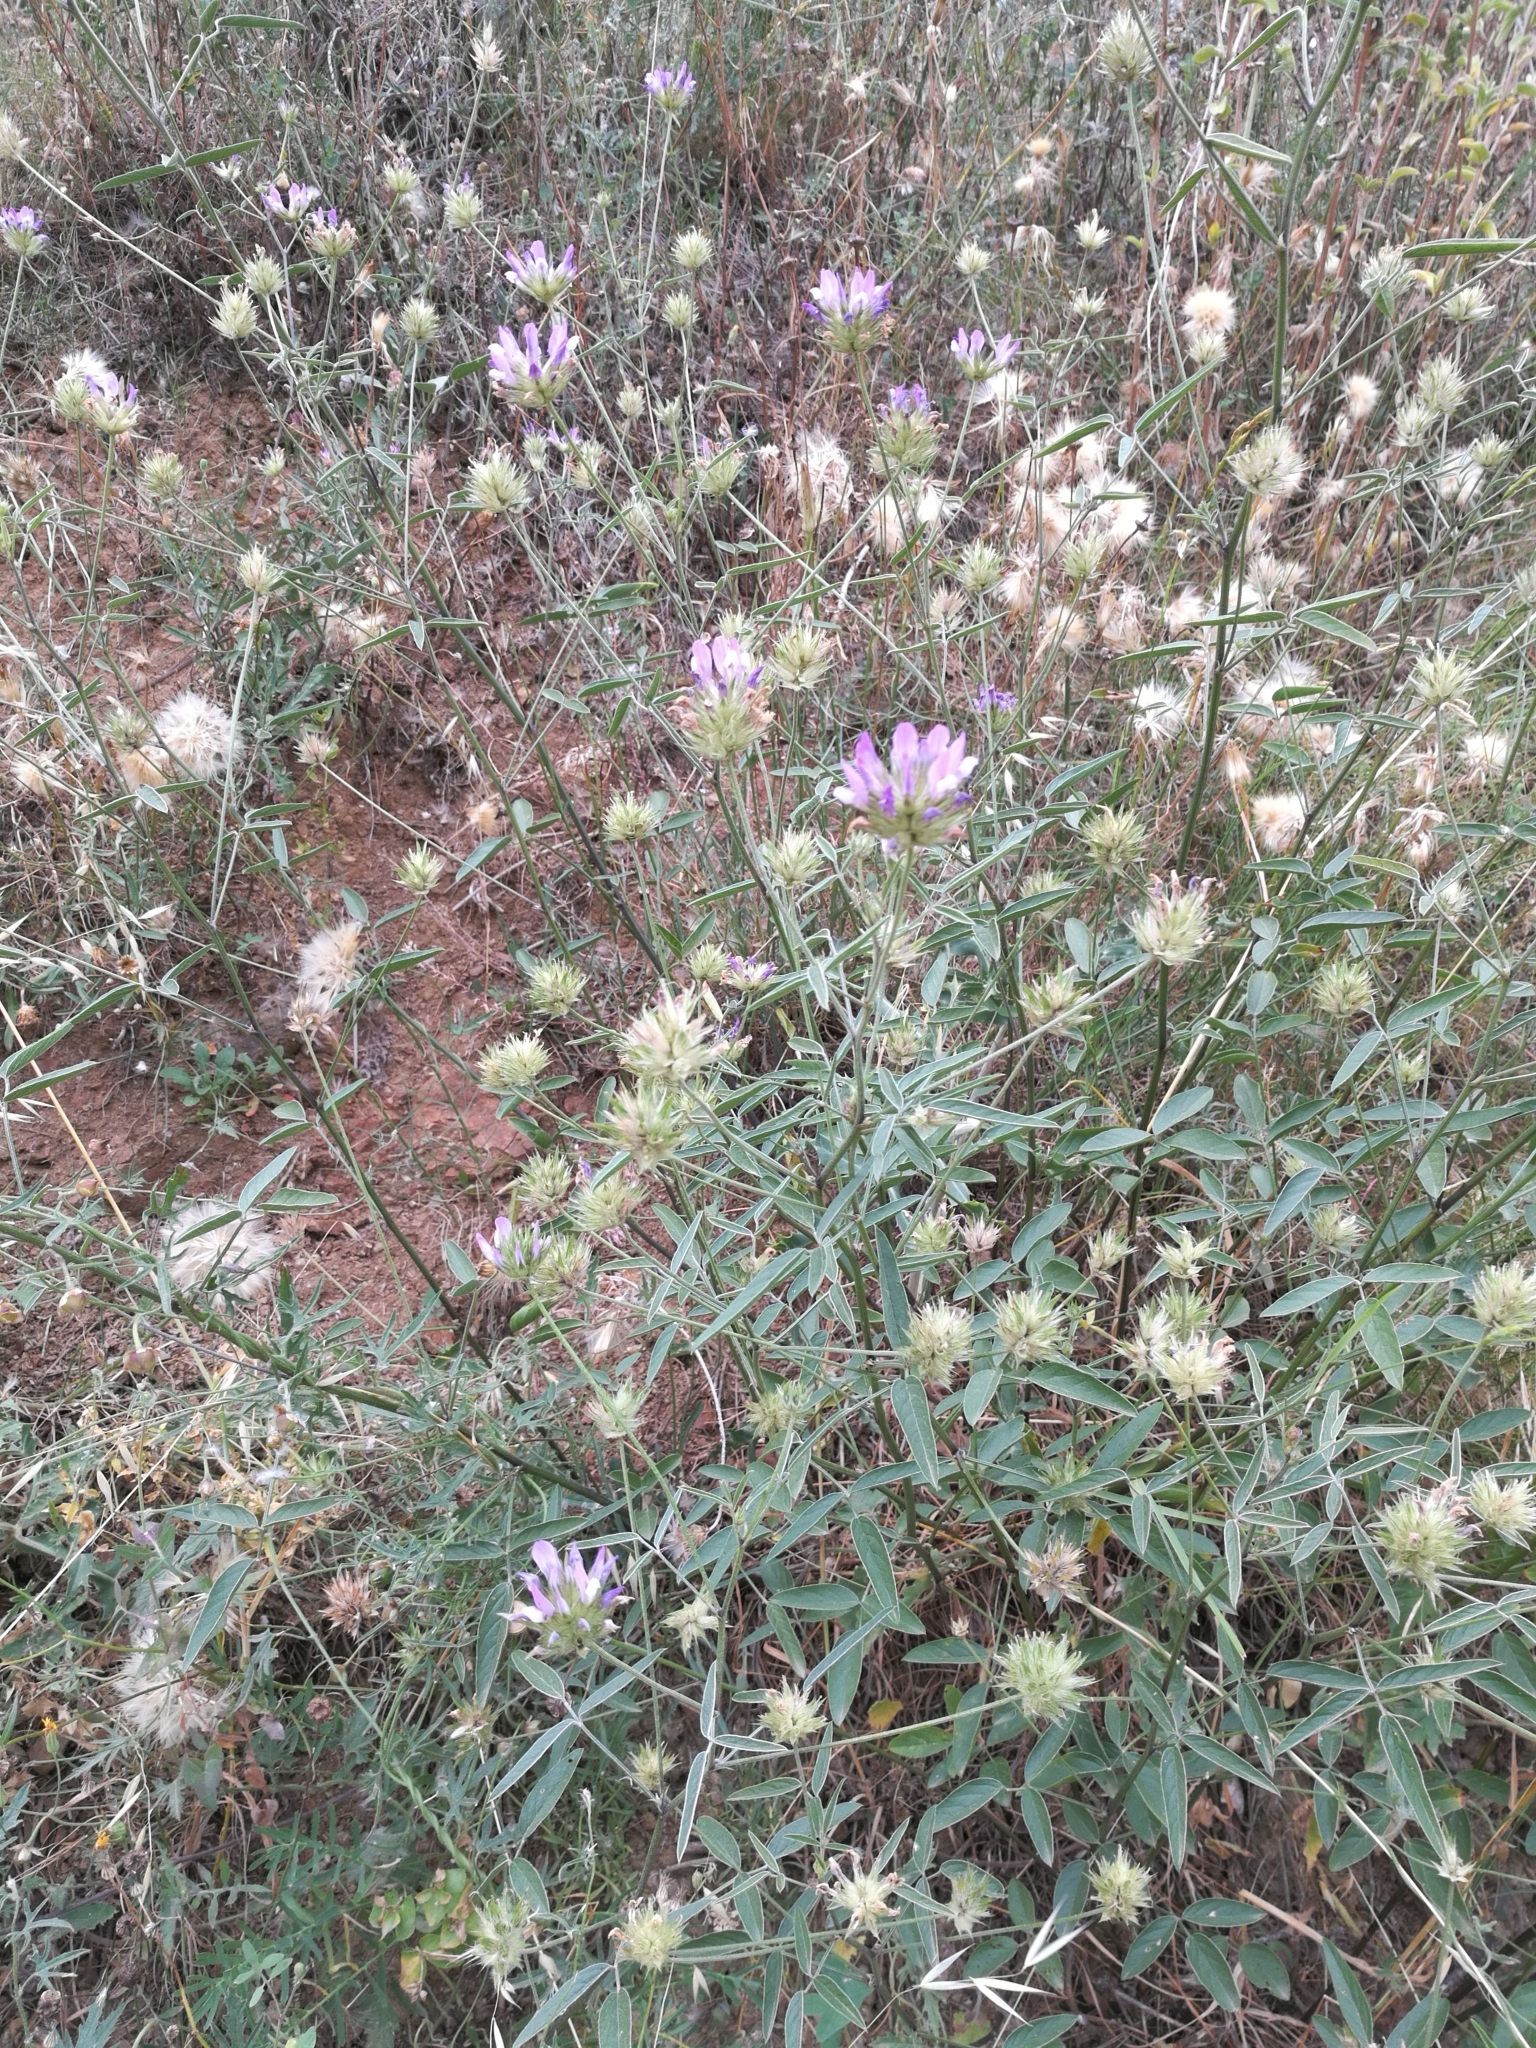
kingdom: Plantae
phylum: Tracheophyta
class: Magnoliopsida
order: Fabales
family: Fabaceae
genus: Bituminaria
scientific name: Bituminaria bituminosa
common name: Arabian pea
